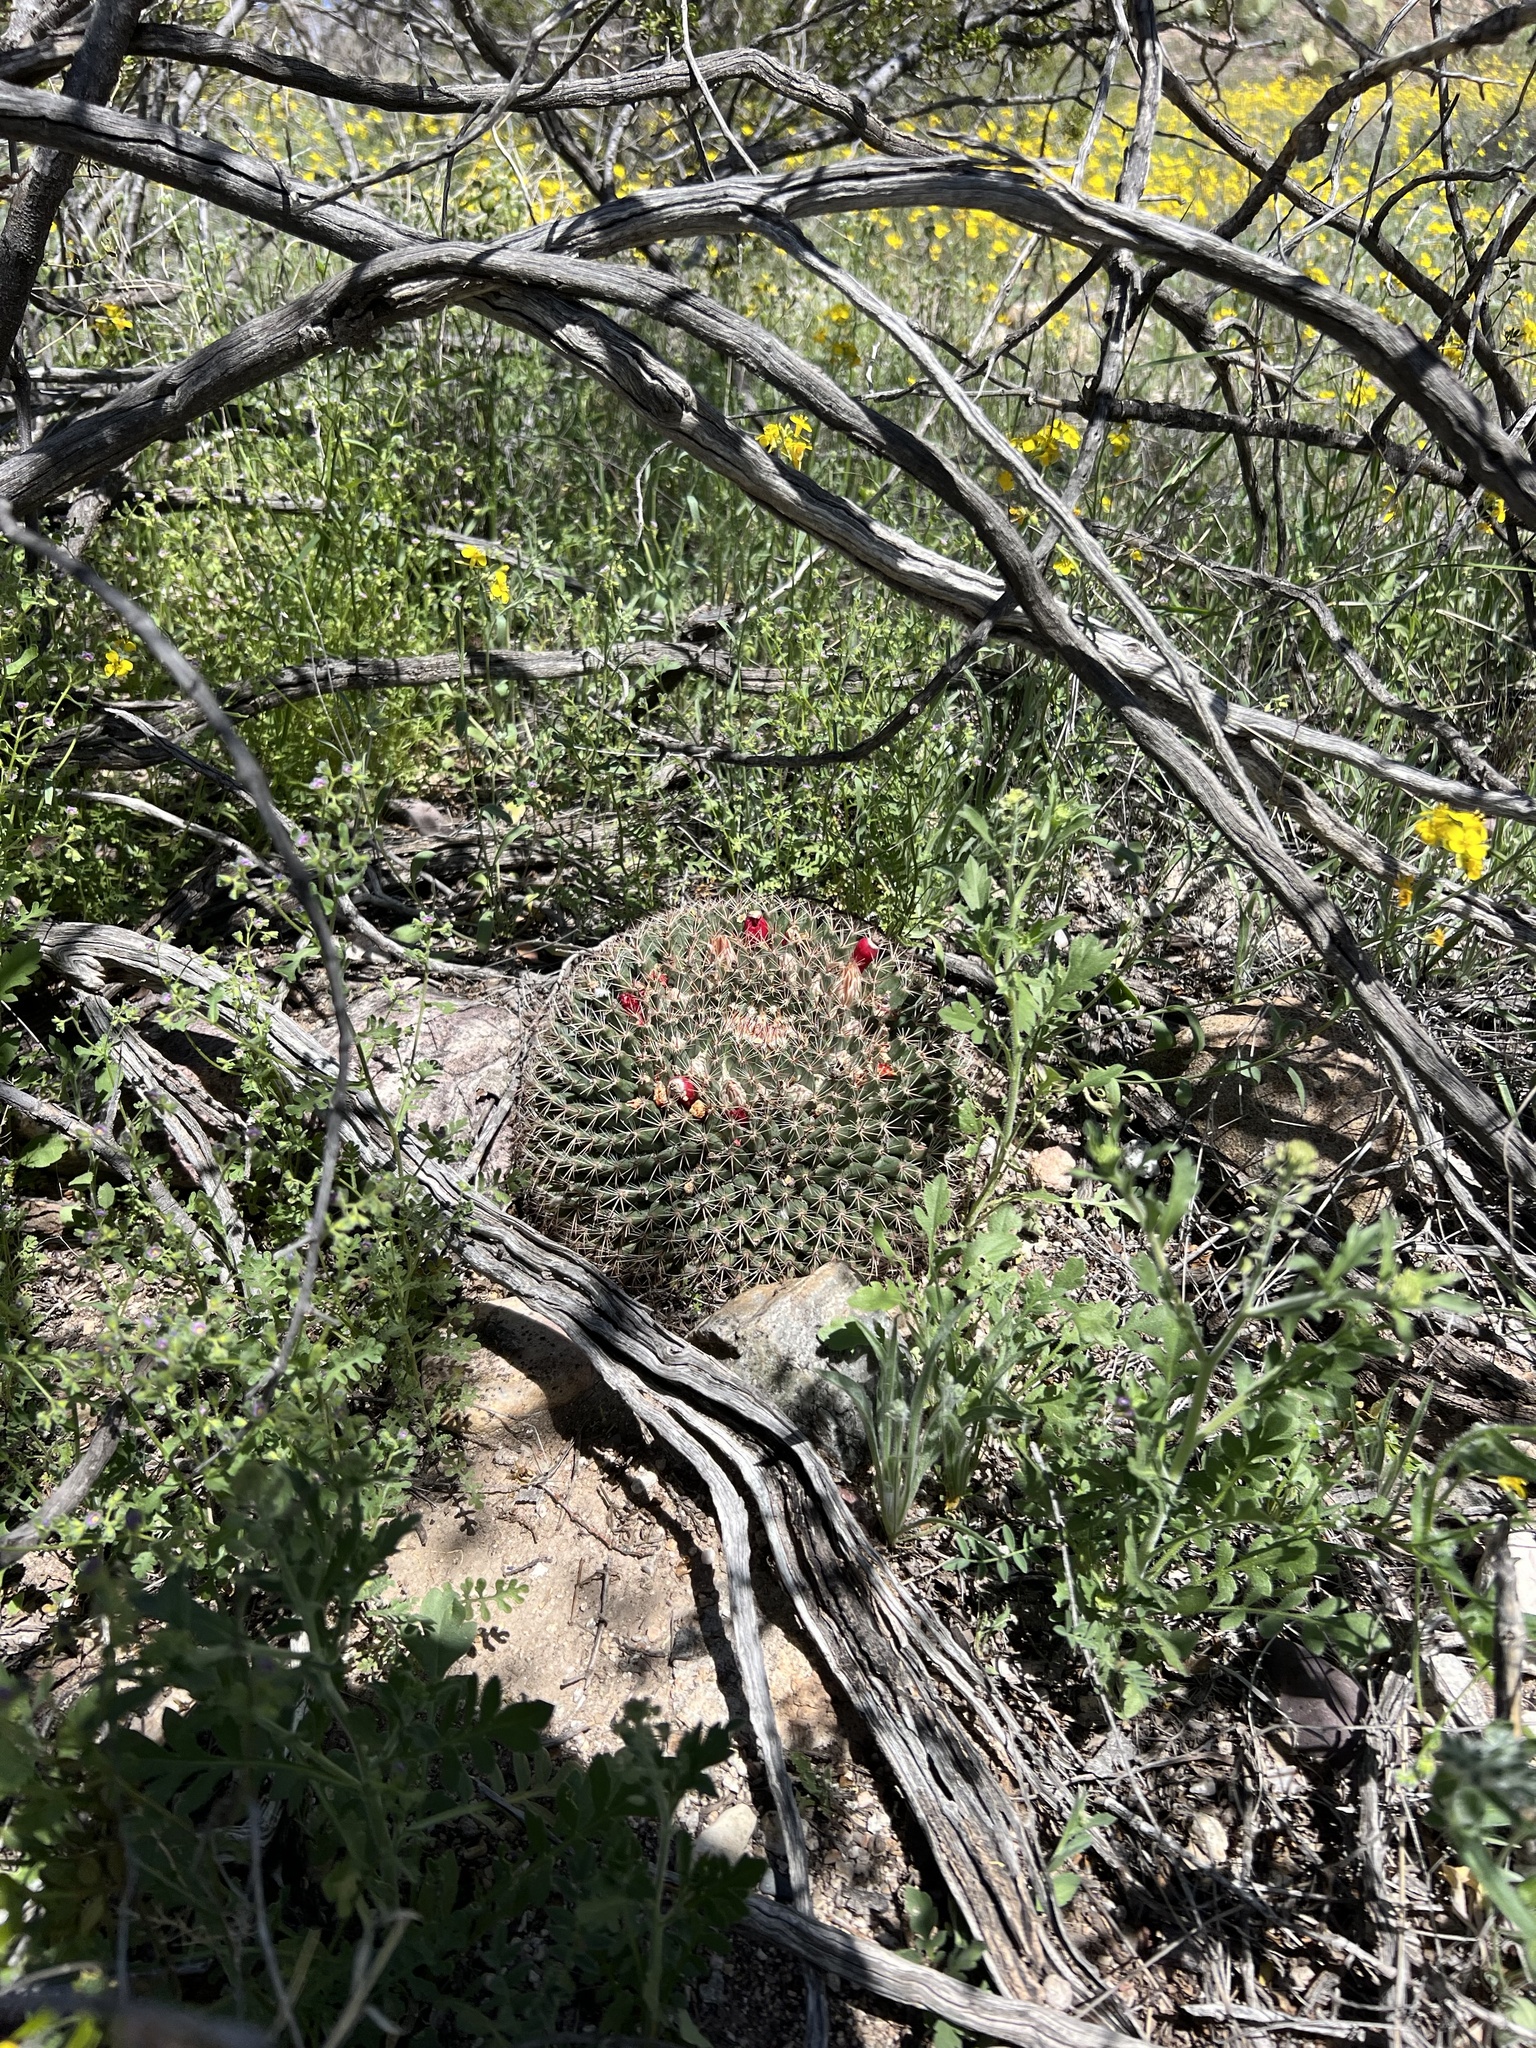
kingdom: Plantae
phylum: Tracheophyta
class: Magnoliopsida
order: Caryophyllales
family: Cactaceae
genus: Mammillaria
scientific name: Mammillaria heyderi
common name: Little nipple cactus
